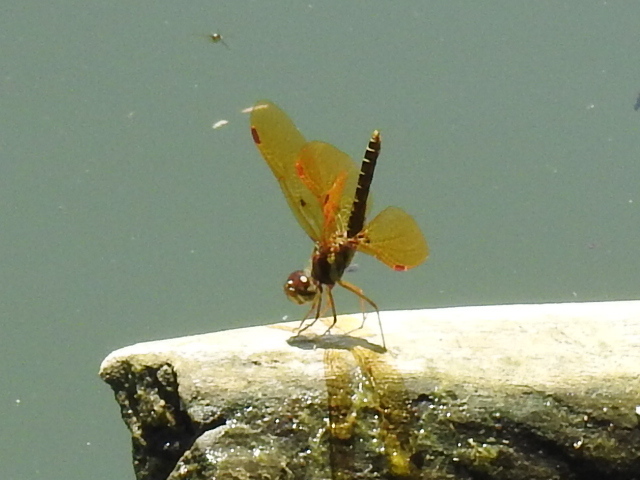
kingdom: Animalia
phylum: Arthropoda
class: Insecta
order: Odonata
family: Libellulidae
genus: Perithemis
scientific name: Perithemis tenera
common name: Eastern amberwing
